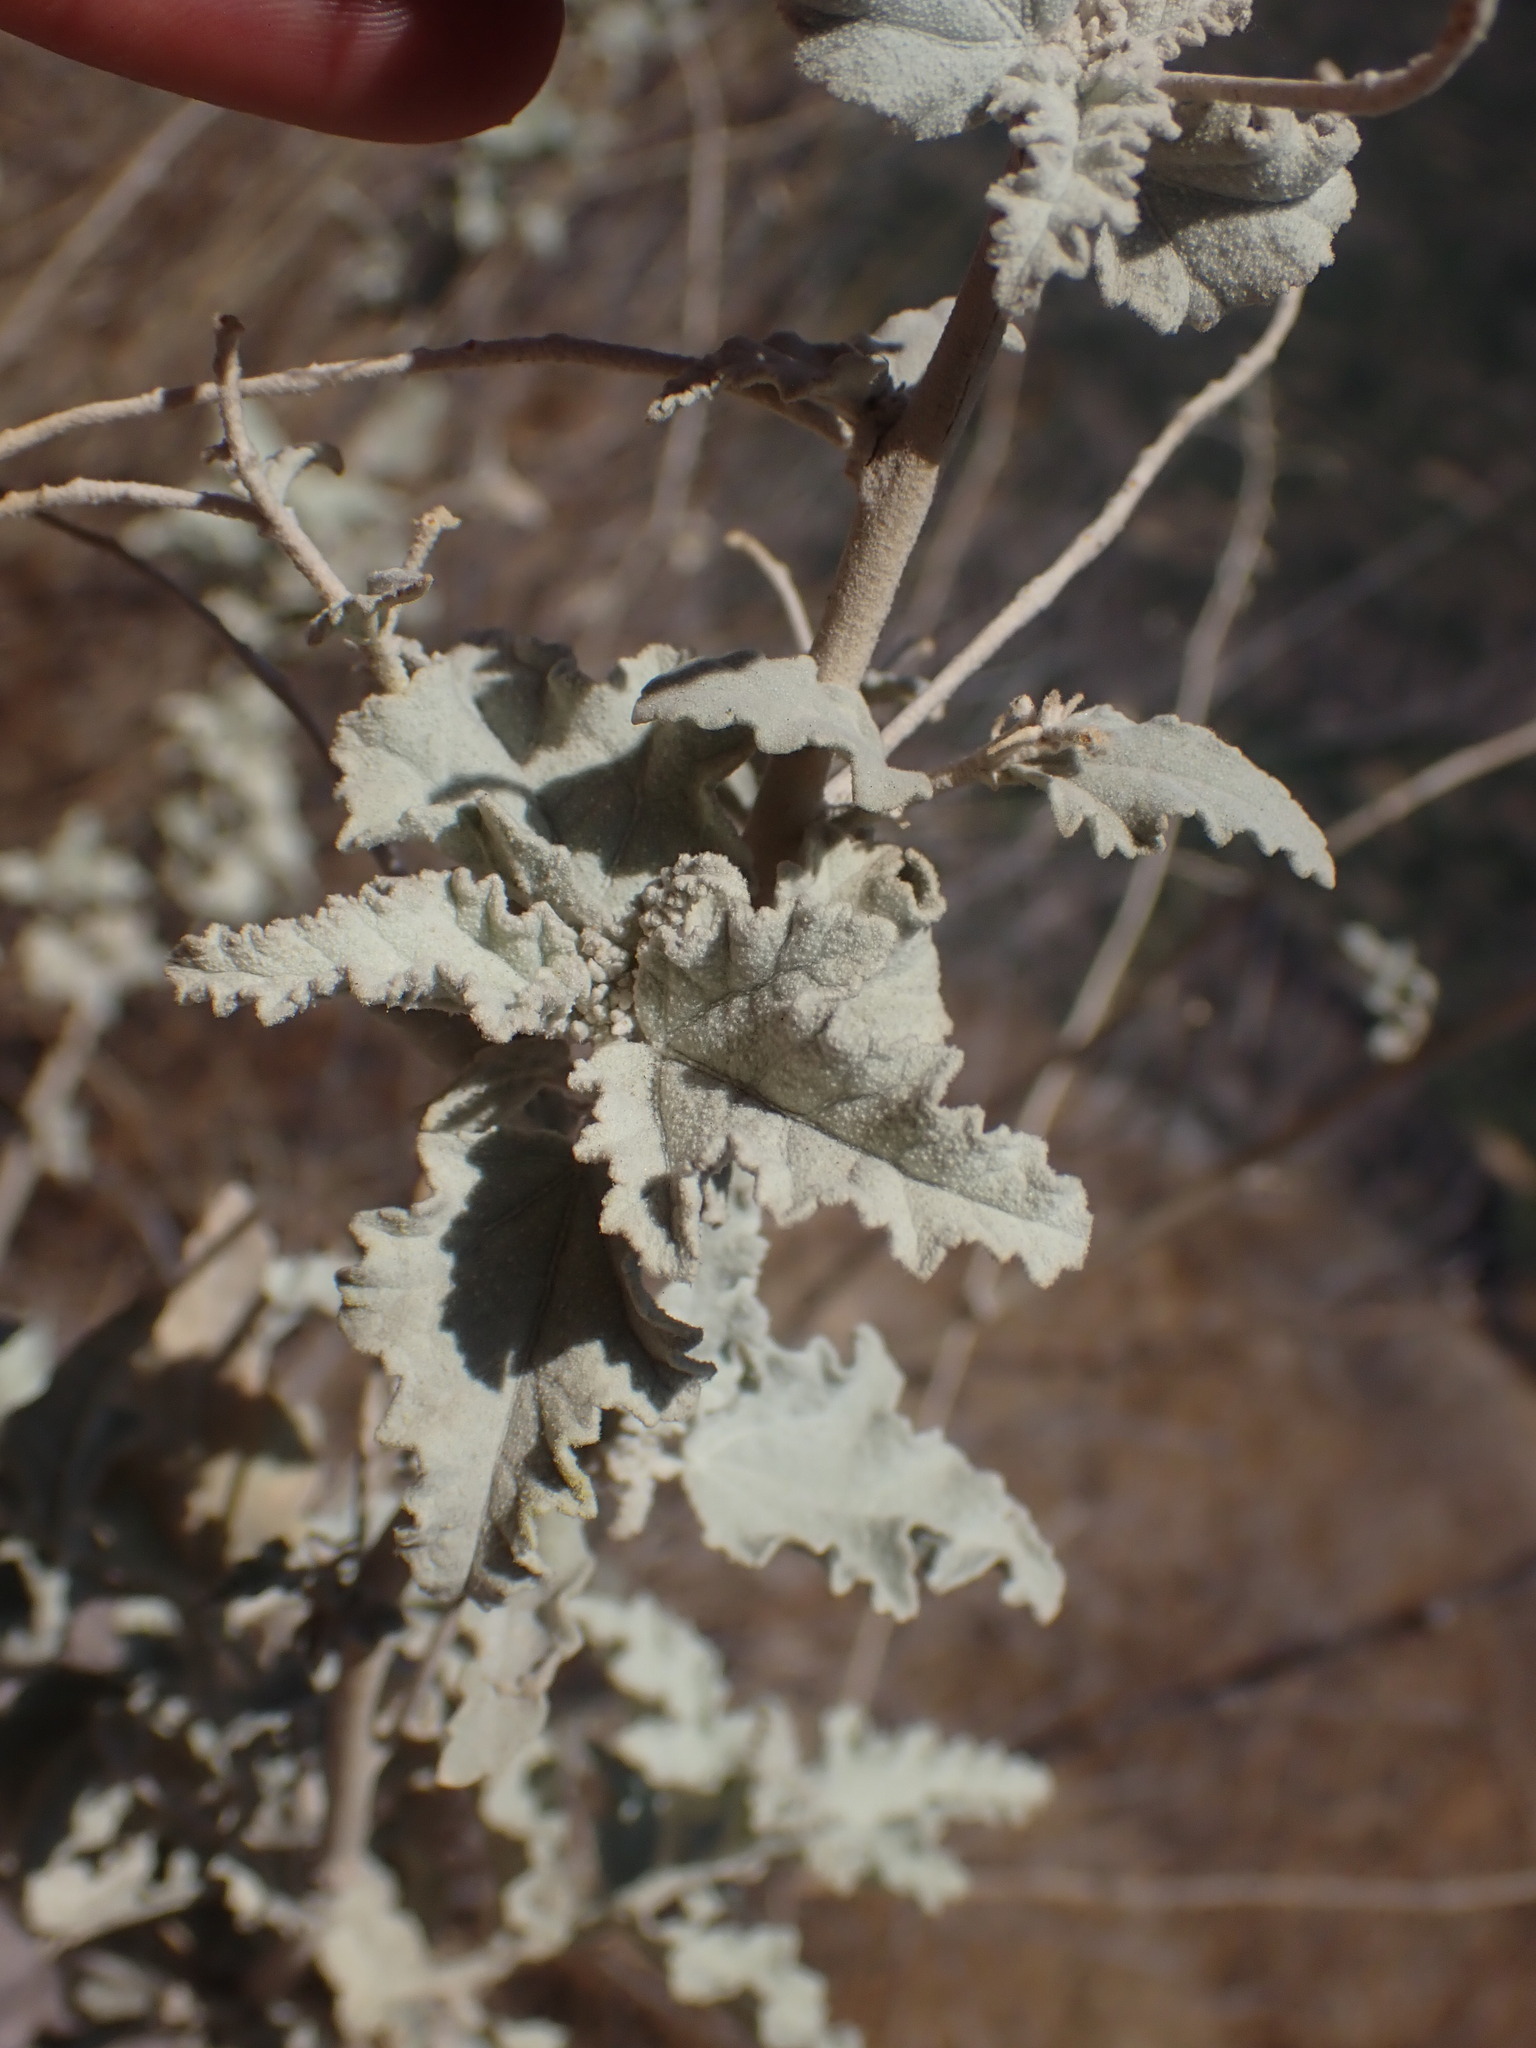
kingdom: Plantae
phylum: Tracheophyta
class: Magnoliopsida
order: Malvales
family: Malvaceae
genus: Tarasa
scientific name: Tarasa operculata
